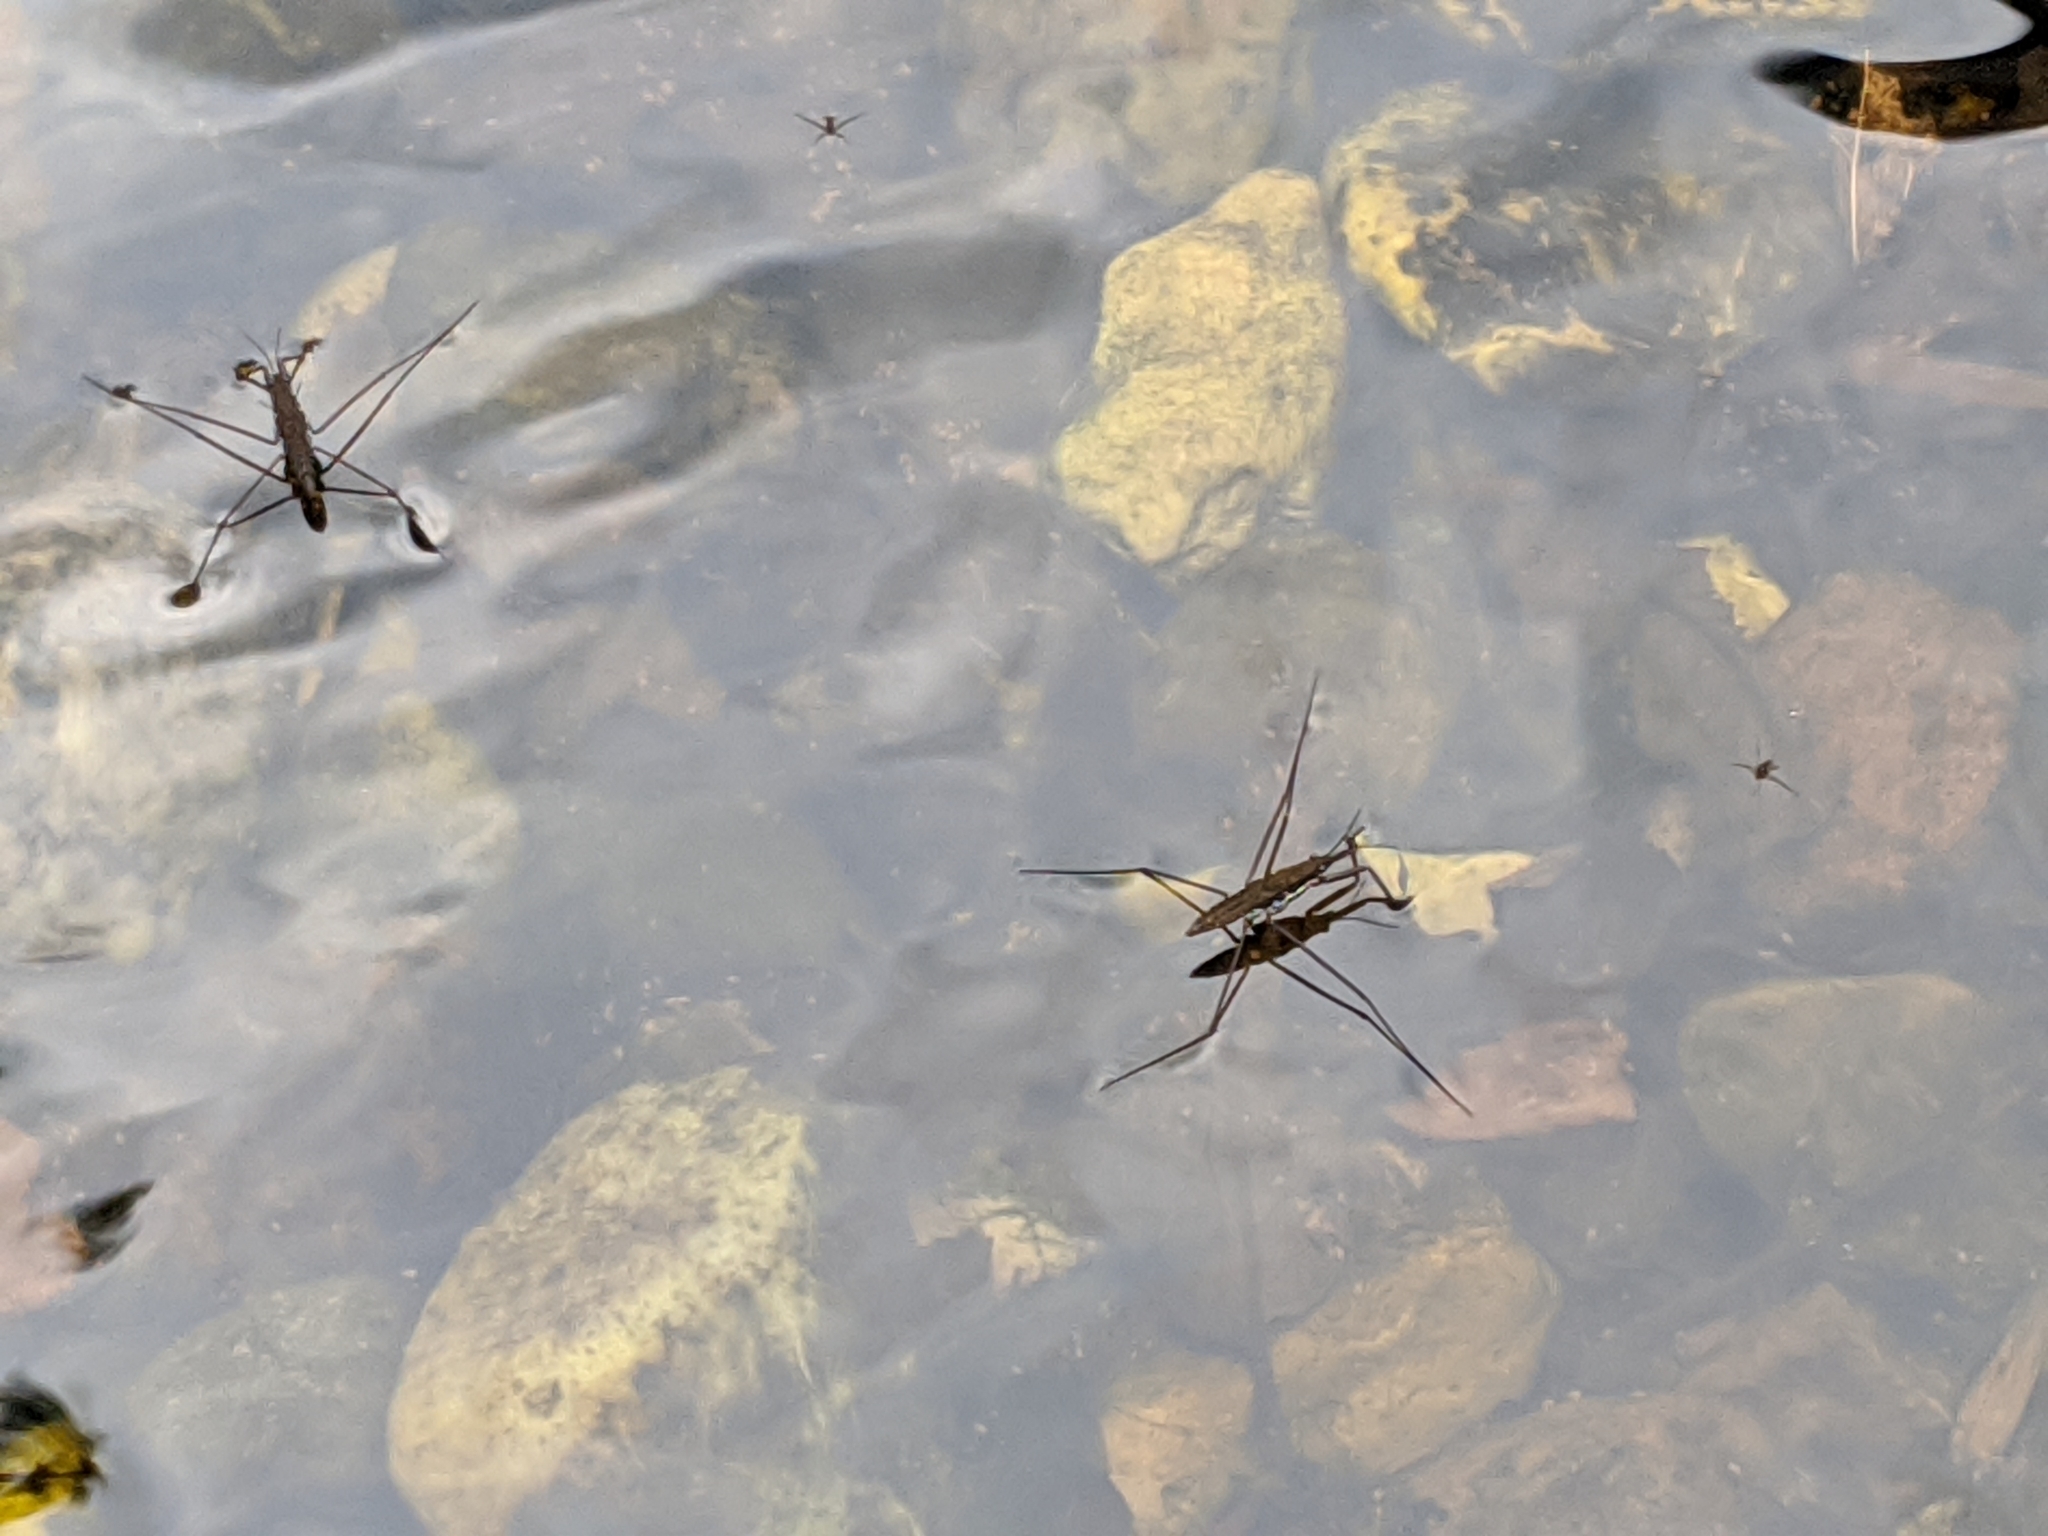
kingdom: Animalia
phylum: Arthropoda
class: Insecta
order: Hemiptera
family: Gerridae
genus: Aquarius
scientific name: Aquarius remigis
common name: Common water strider
